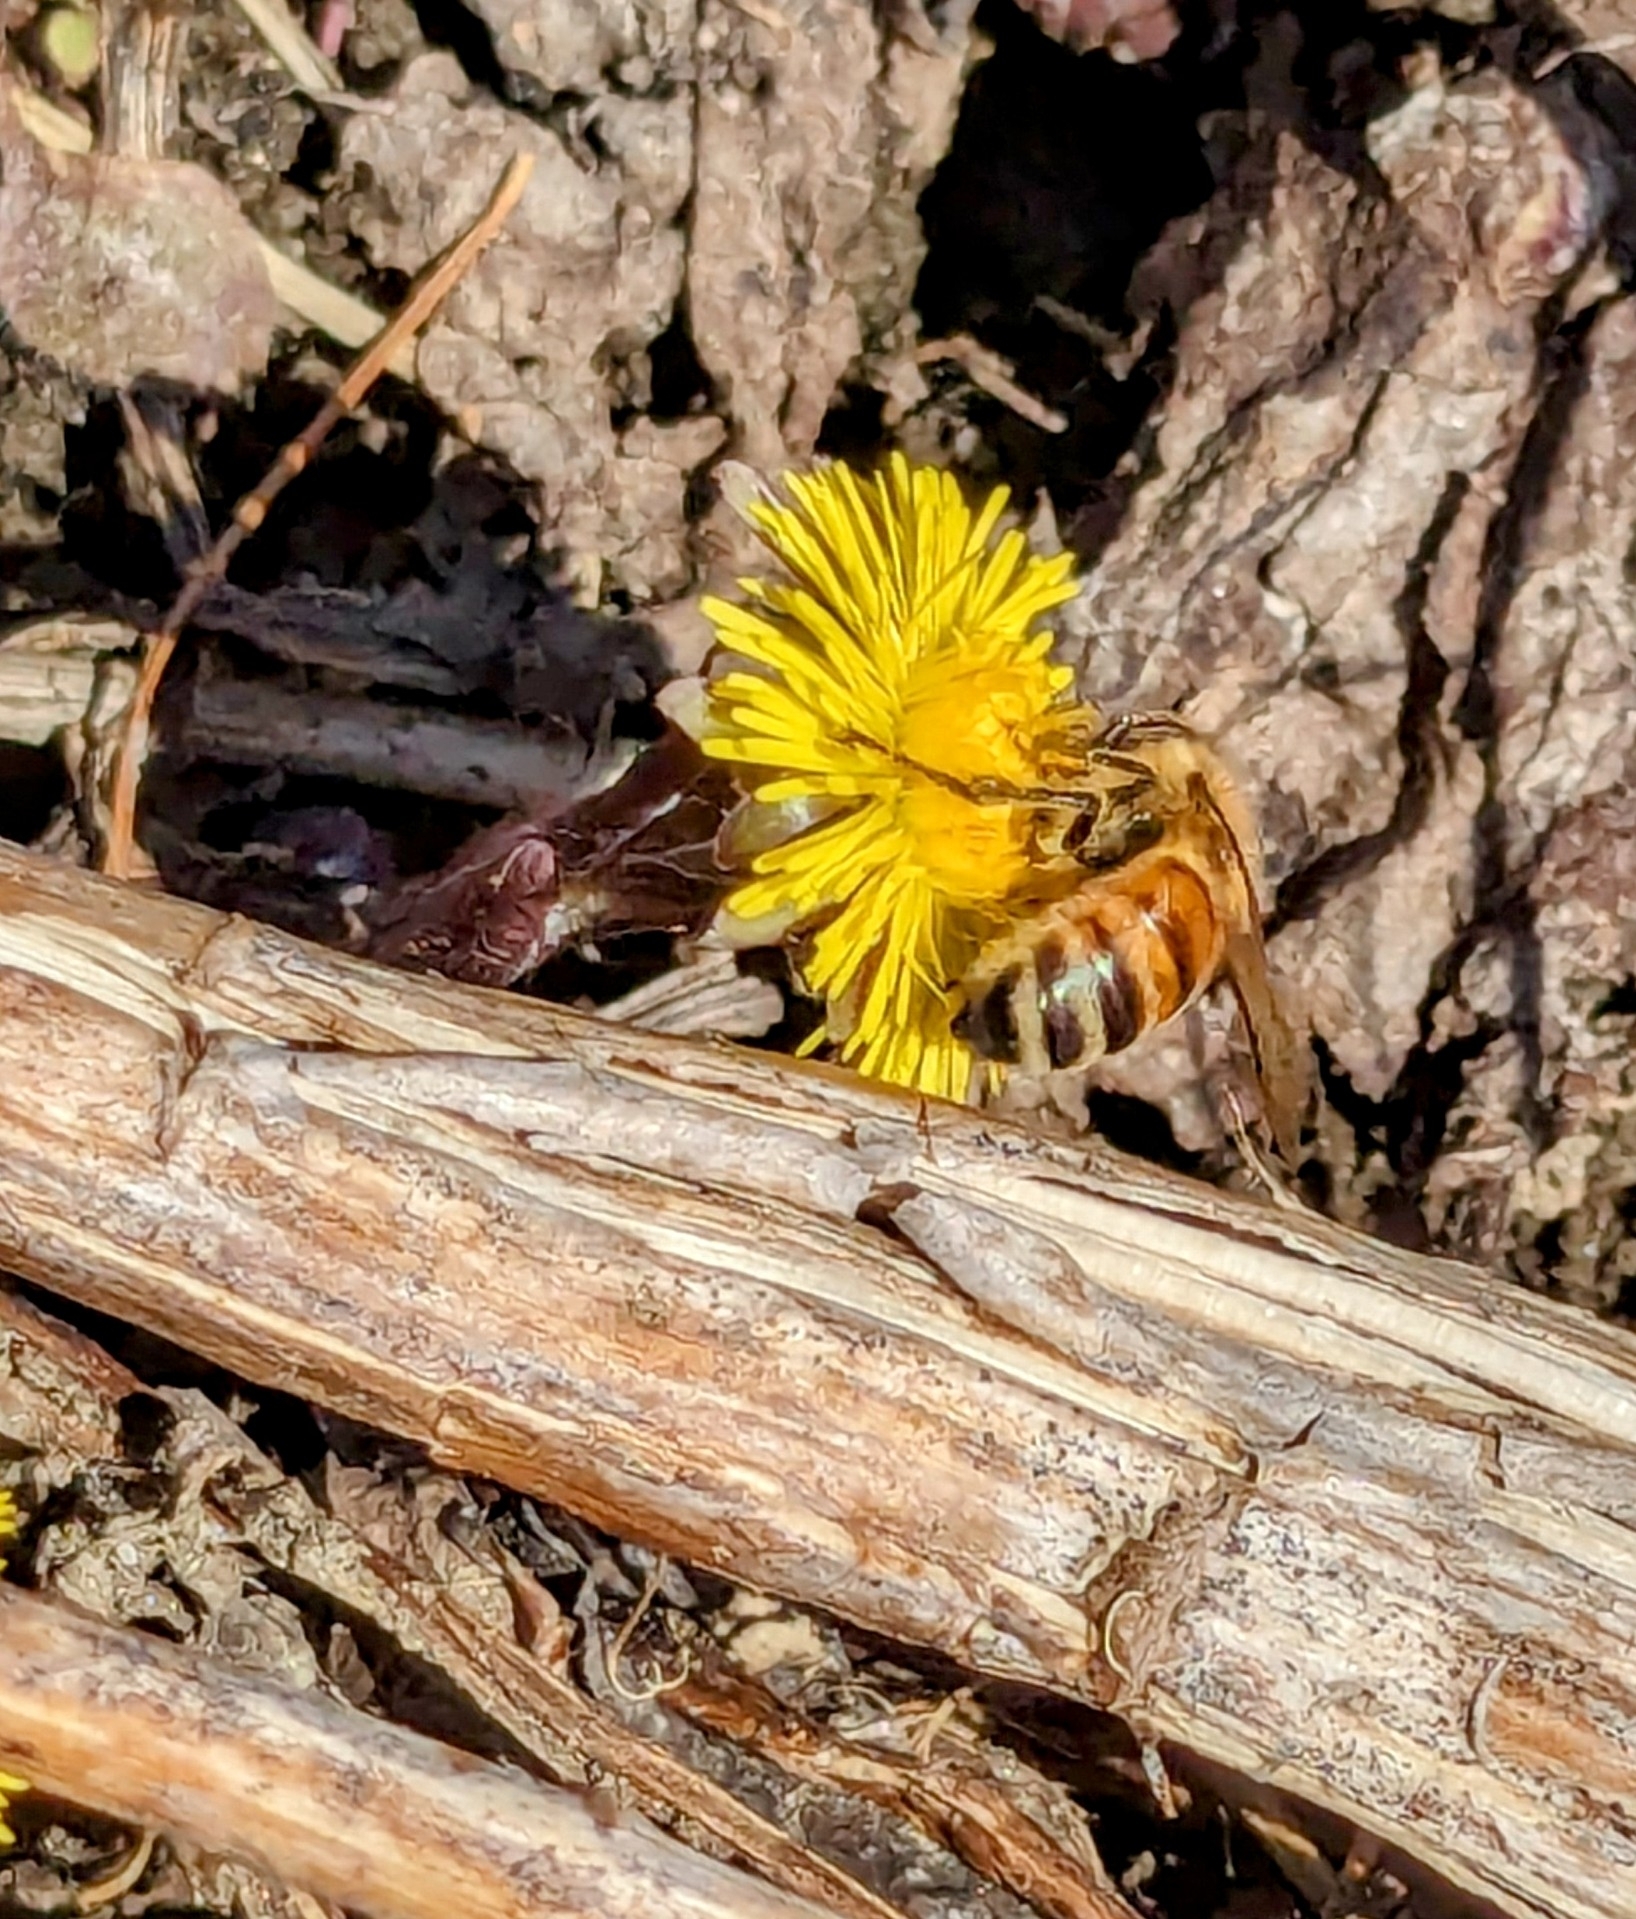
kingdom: Animalia
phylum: Arthropoda
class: Insecta
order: Hymenoptera
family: Apidae
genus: Apis
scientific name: Apis mellifera
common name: Honey bee
